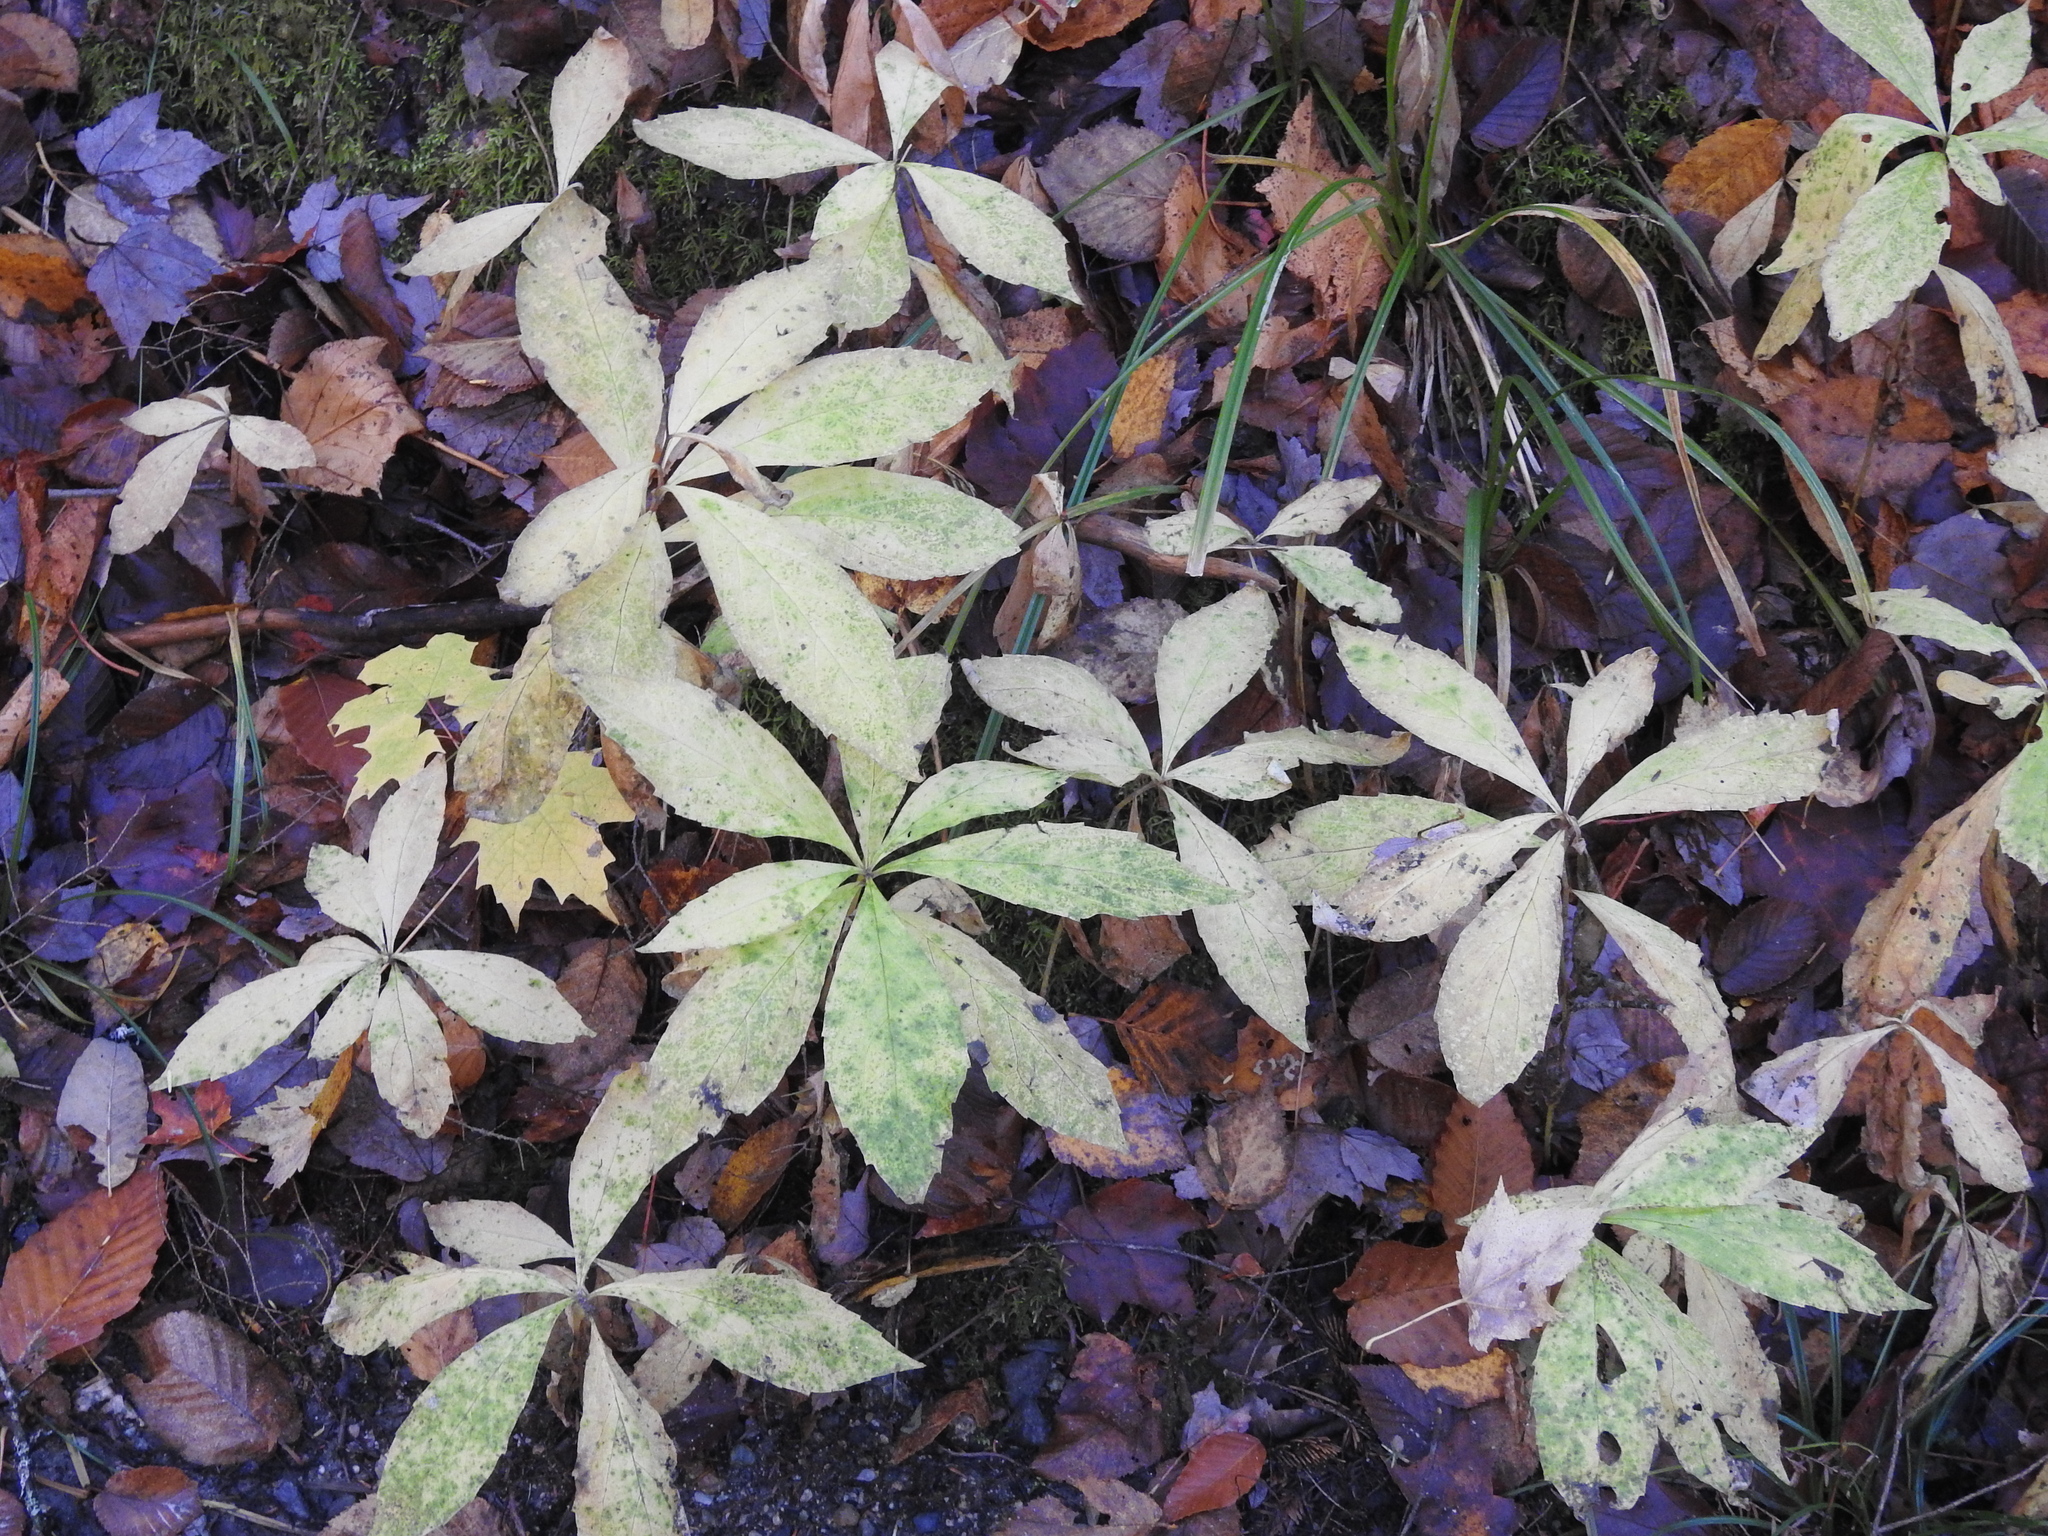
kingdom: Plantae
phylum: Tracheophyta
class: Magnoliopsida
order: Asterales
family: Asteraceae
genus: Oclemena
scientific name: Oclemena acuminata
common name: Mountain aster
